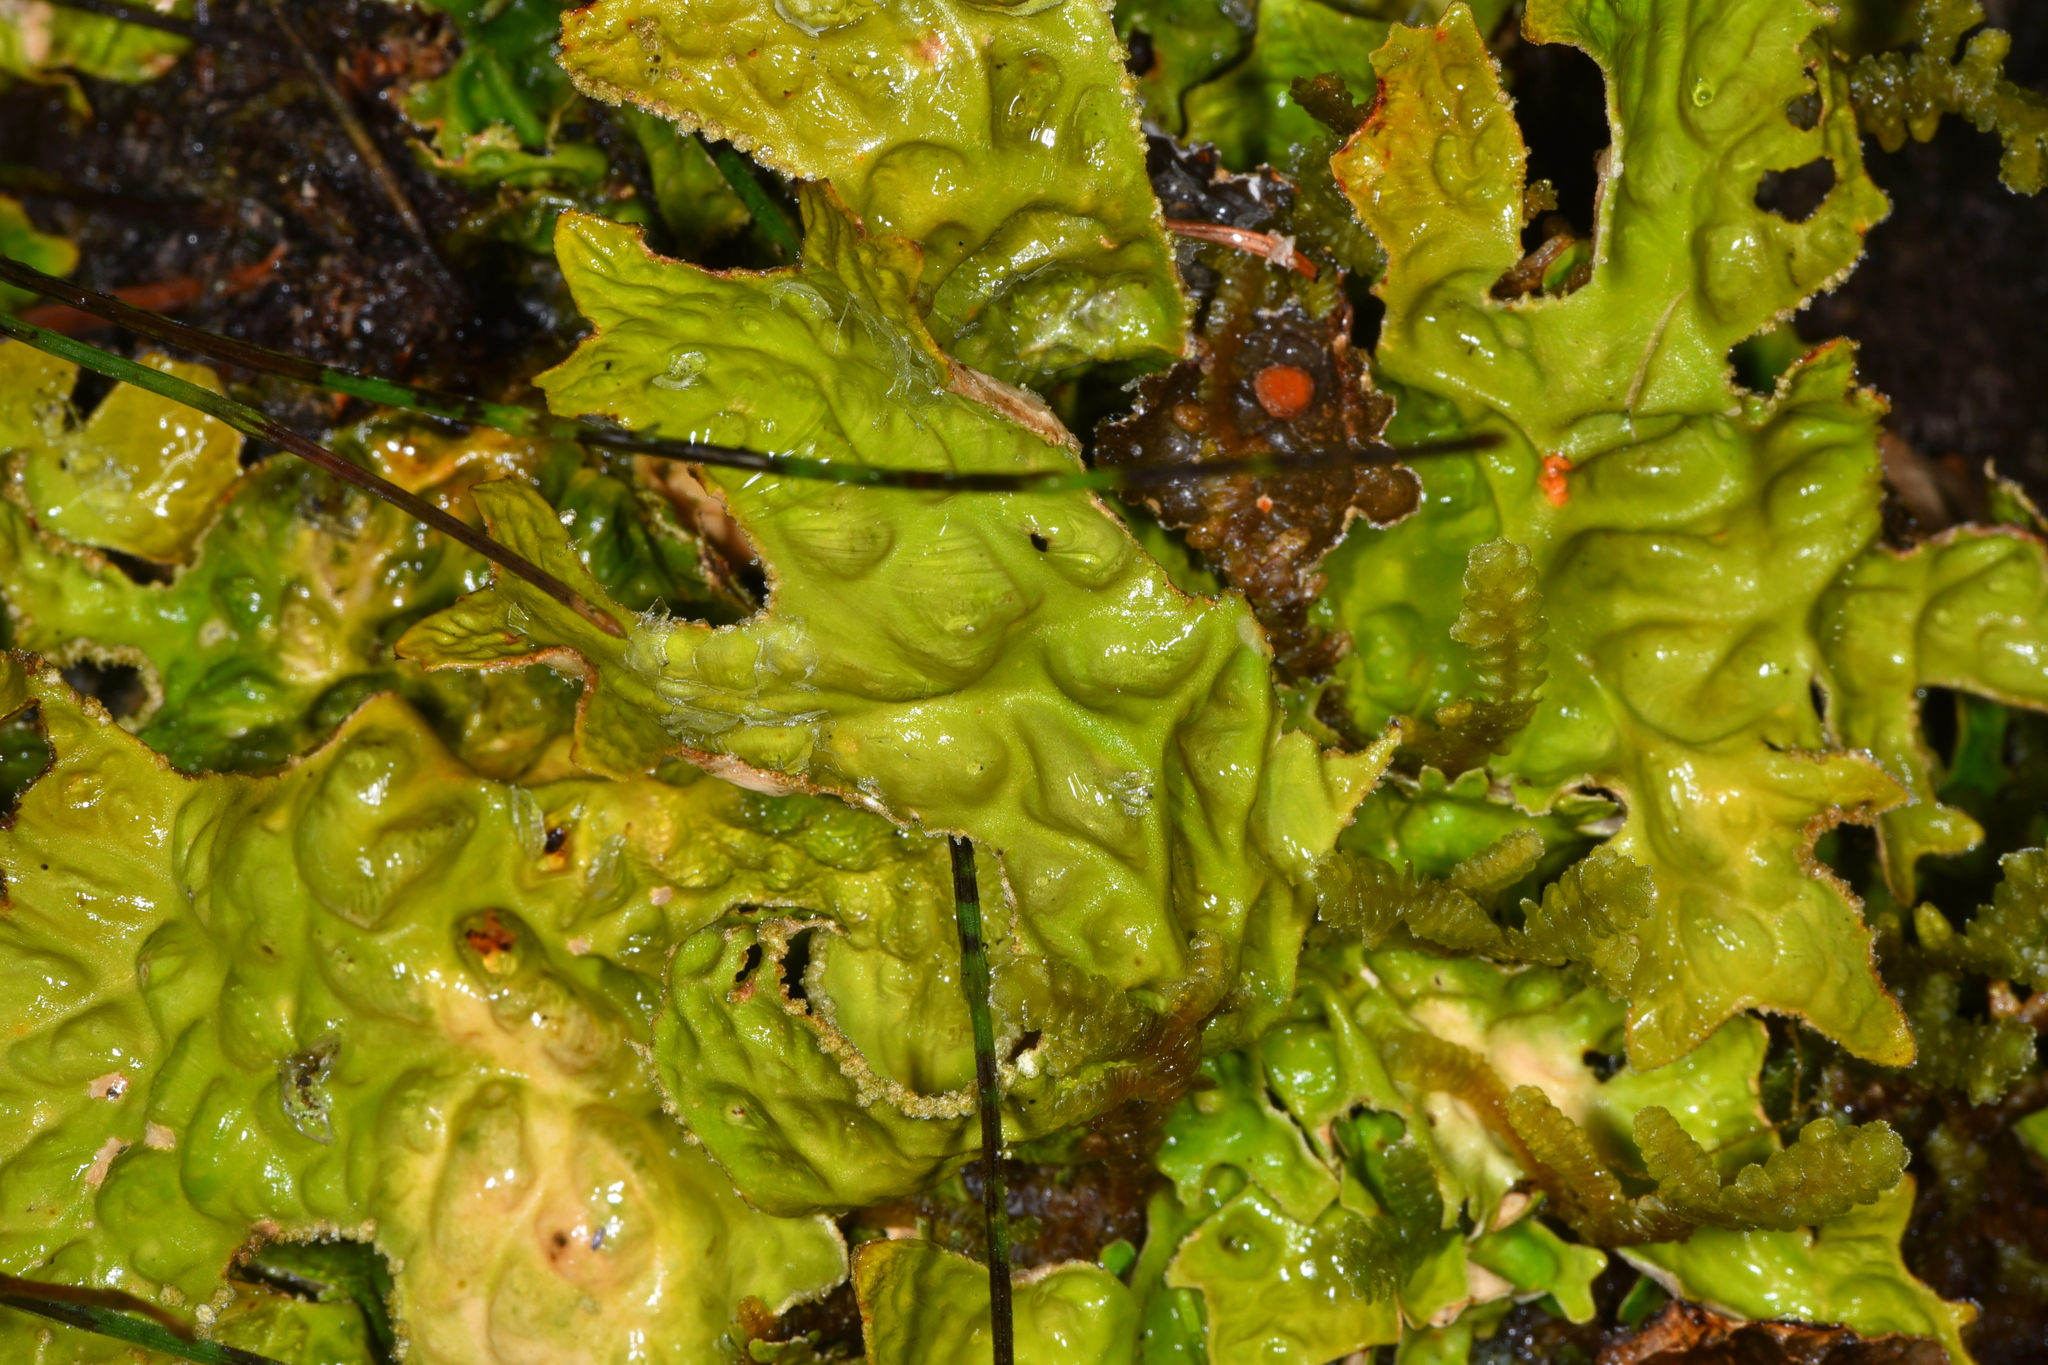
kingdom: Fungi
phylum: Ascomycota
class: Lecanoromycetes
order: Peltigerales
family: Lobariaceae
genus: Lobaria
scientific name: Lobaria pulmonaria
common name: Lungwort
